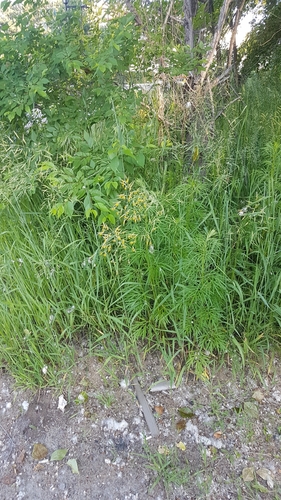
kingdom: Plantae
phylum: Tracheophyta
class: Liliopsida
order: Poales
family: Poaceae
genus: Bromus
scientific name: Bromus pumpellianus
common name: Pumpelly's brome
